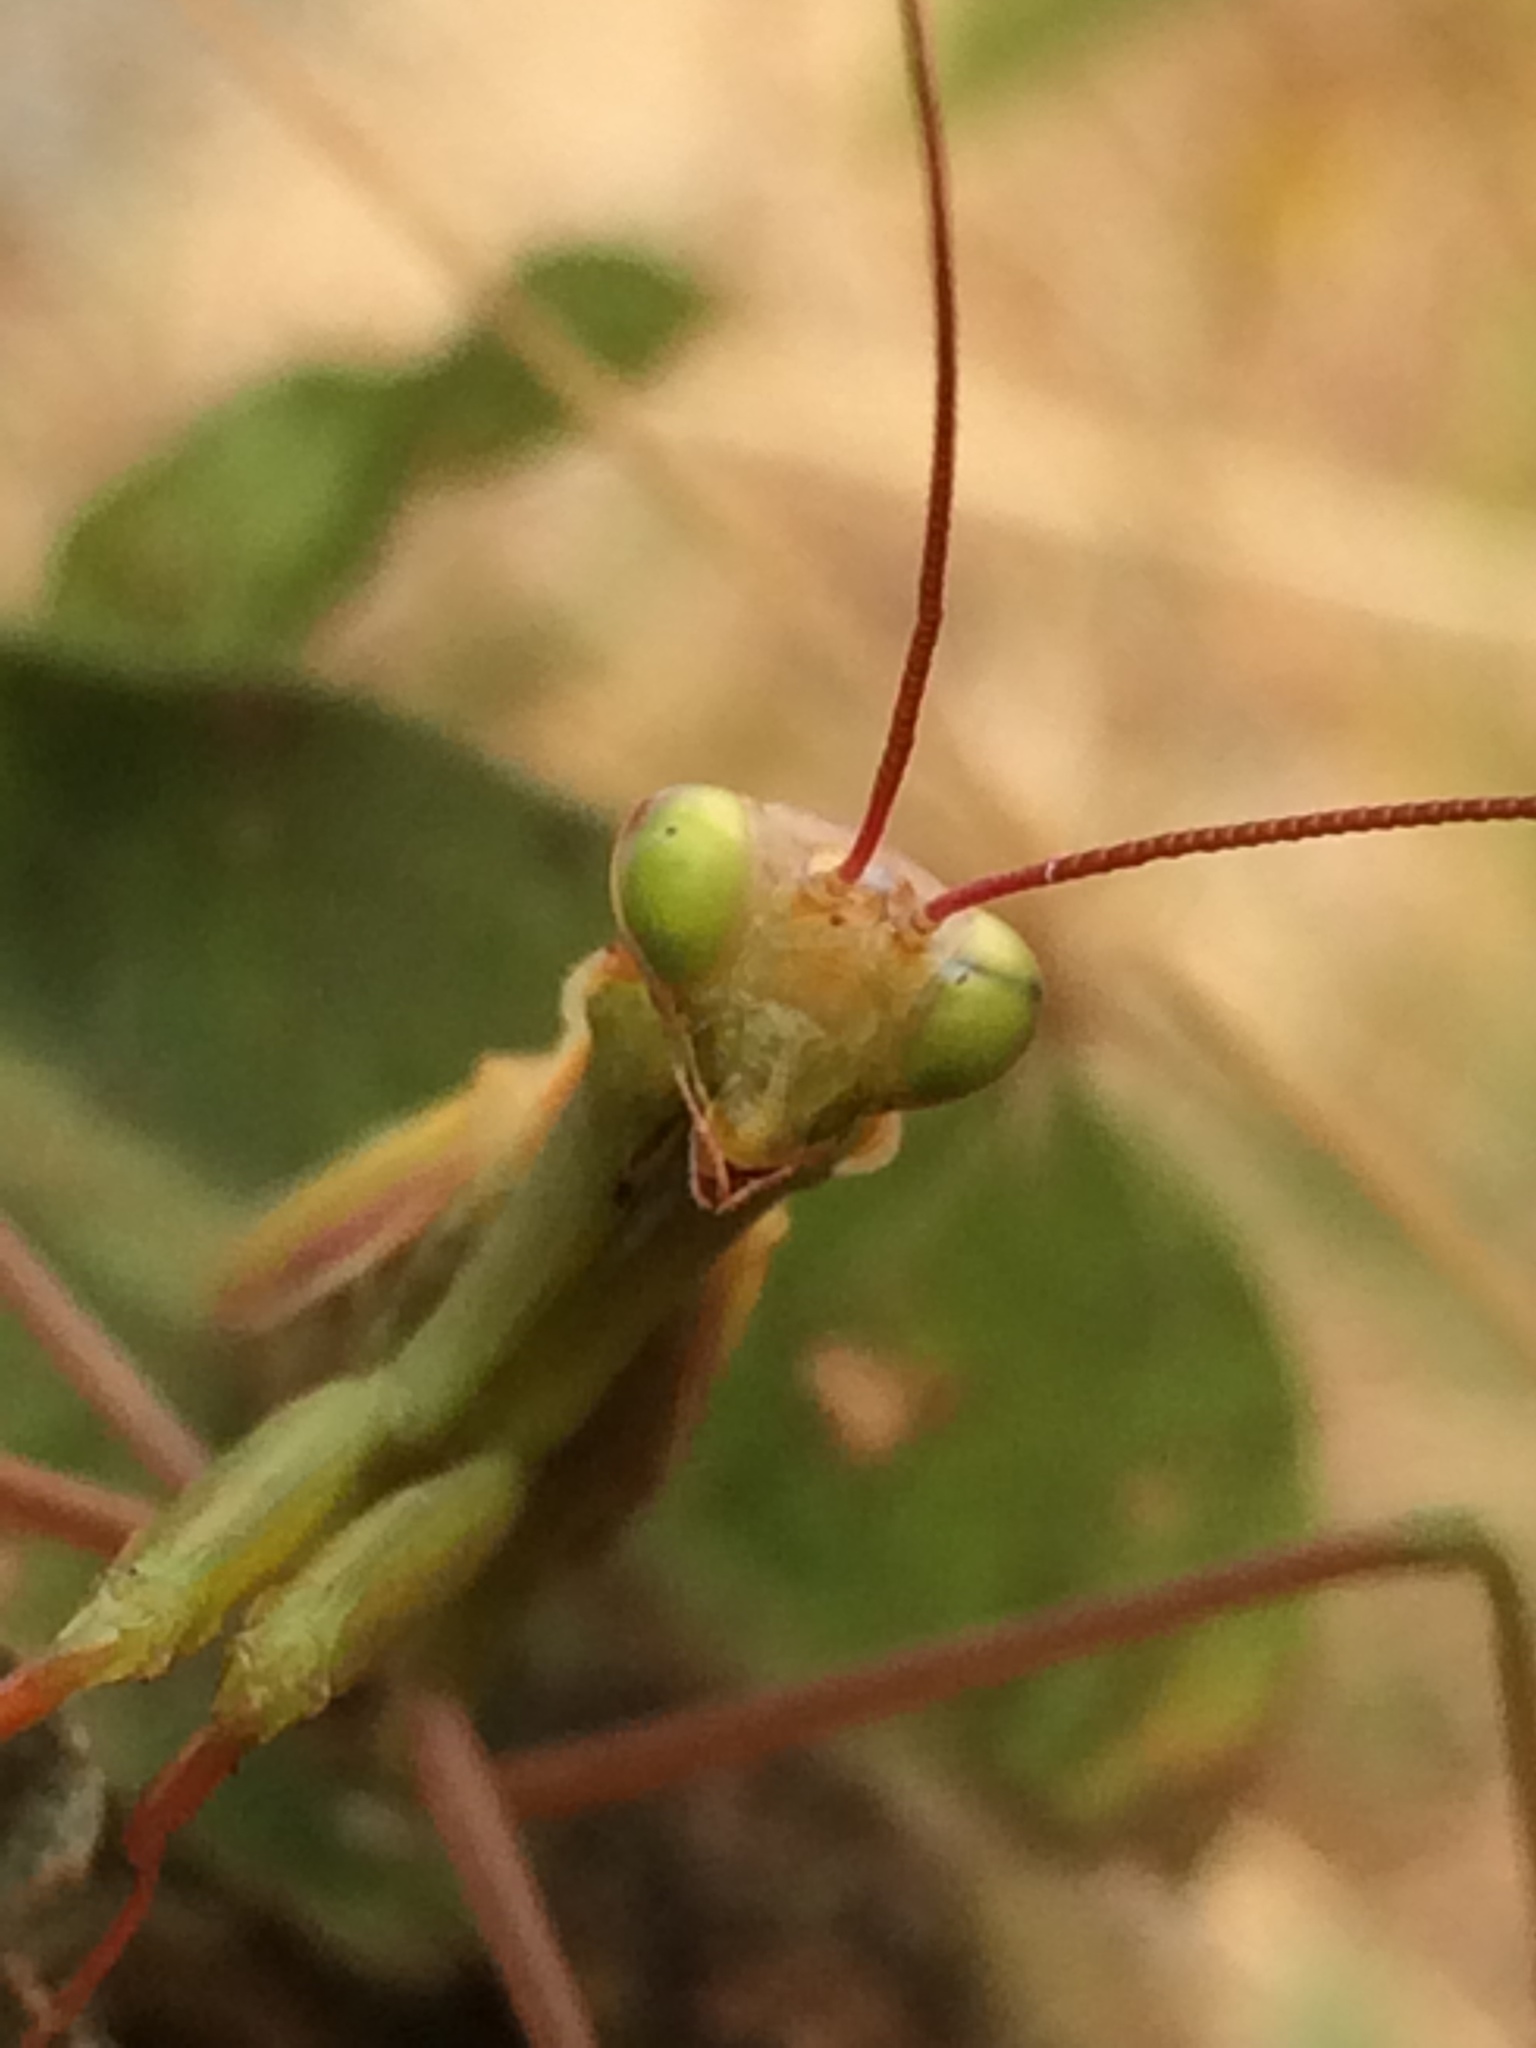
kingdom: Animalia
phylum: Arthropoda
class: Insecta
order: Mantodea
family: Mantidae
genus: Mantis
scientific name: Mantis religiosa
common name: Praying mantis
